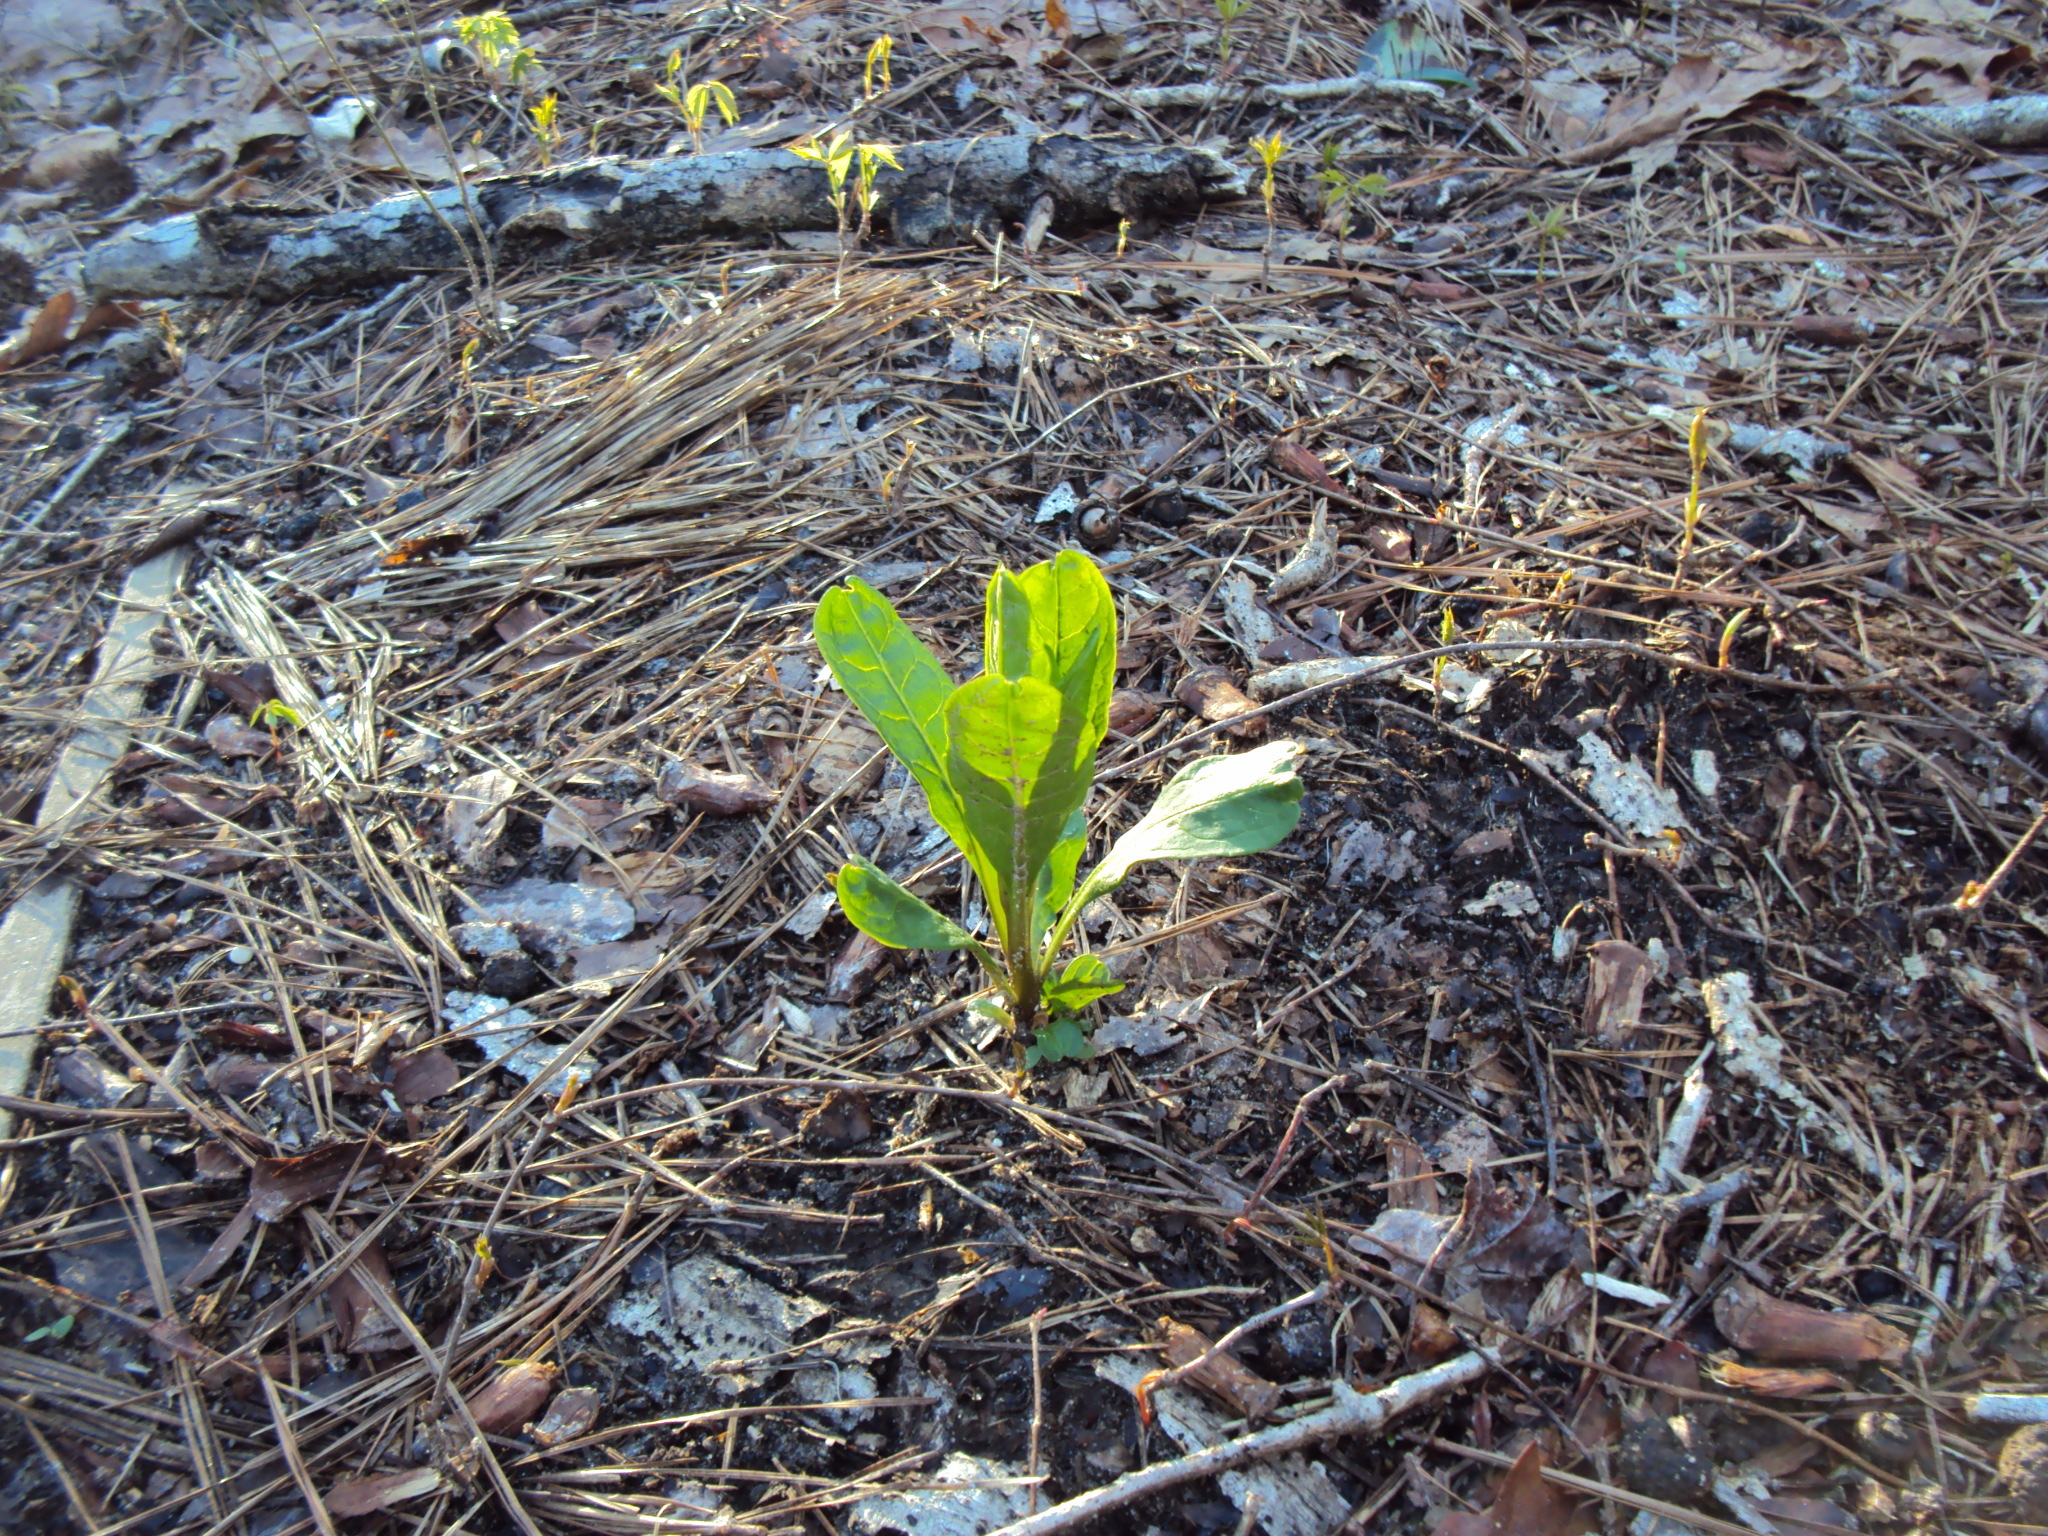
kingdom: Plantae
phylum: Tracheophyta
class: Magnoliopsida
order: Caryophyllales
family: Phytolaccaceae
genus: Phytolacca
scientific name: Phytolacca americana
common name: American pokeweed
